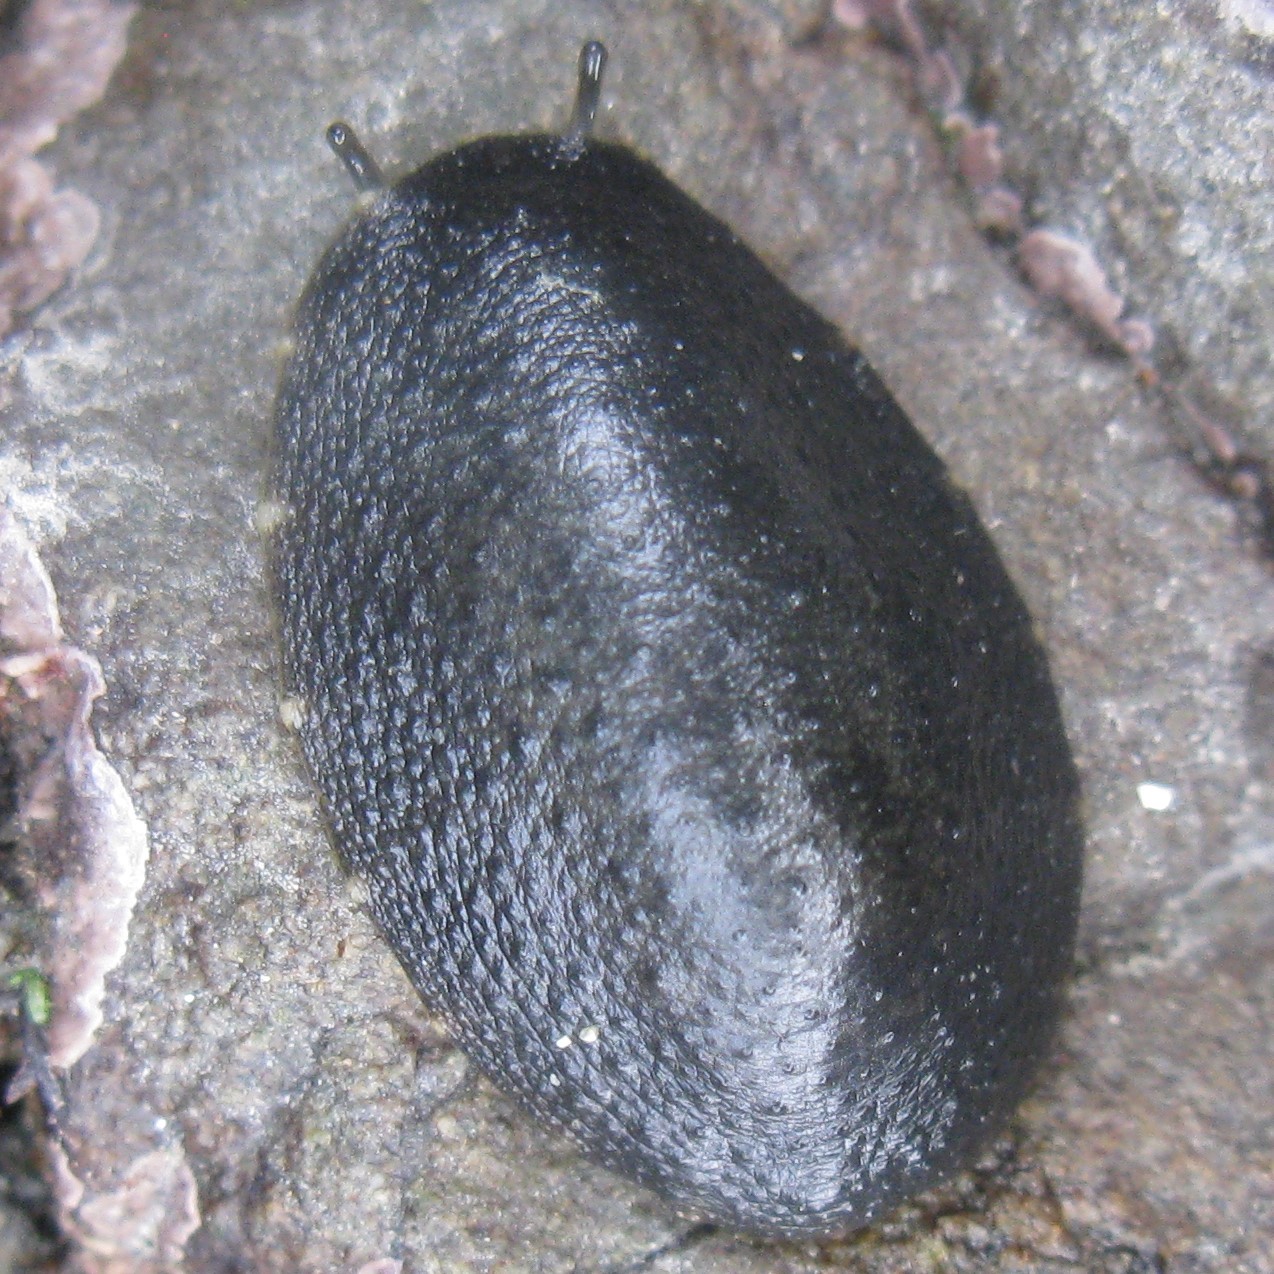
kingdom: Animalia
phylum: Mollusca
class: Gastropoda
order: Systellommatophora
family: Onchidiidae
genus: Onchidella
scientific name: Onchidella nigricans
